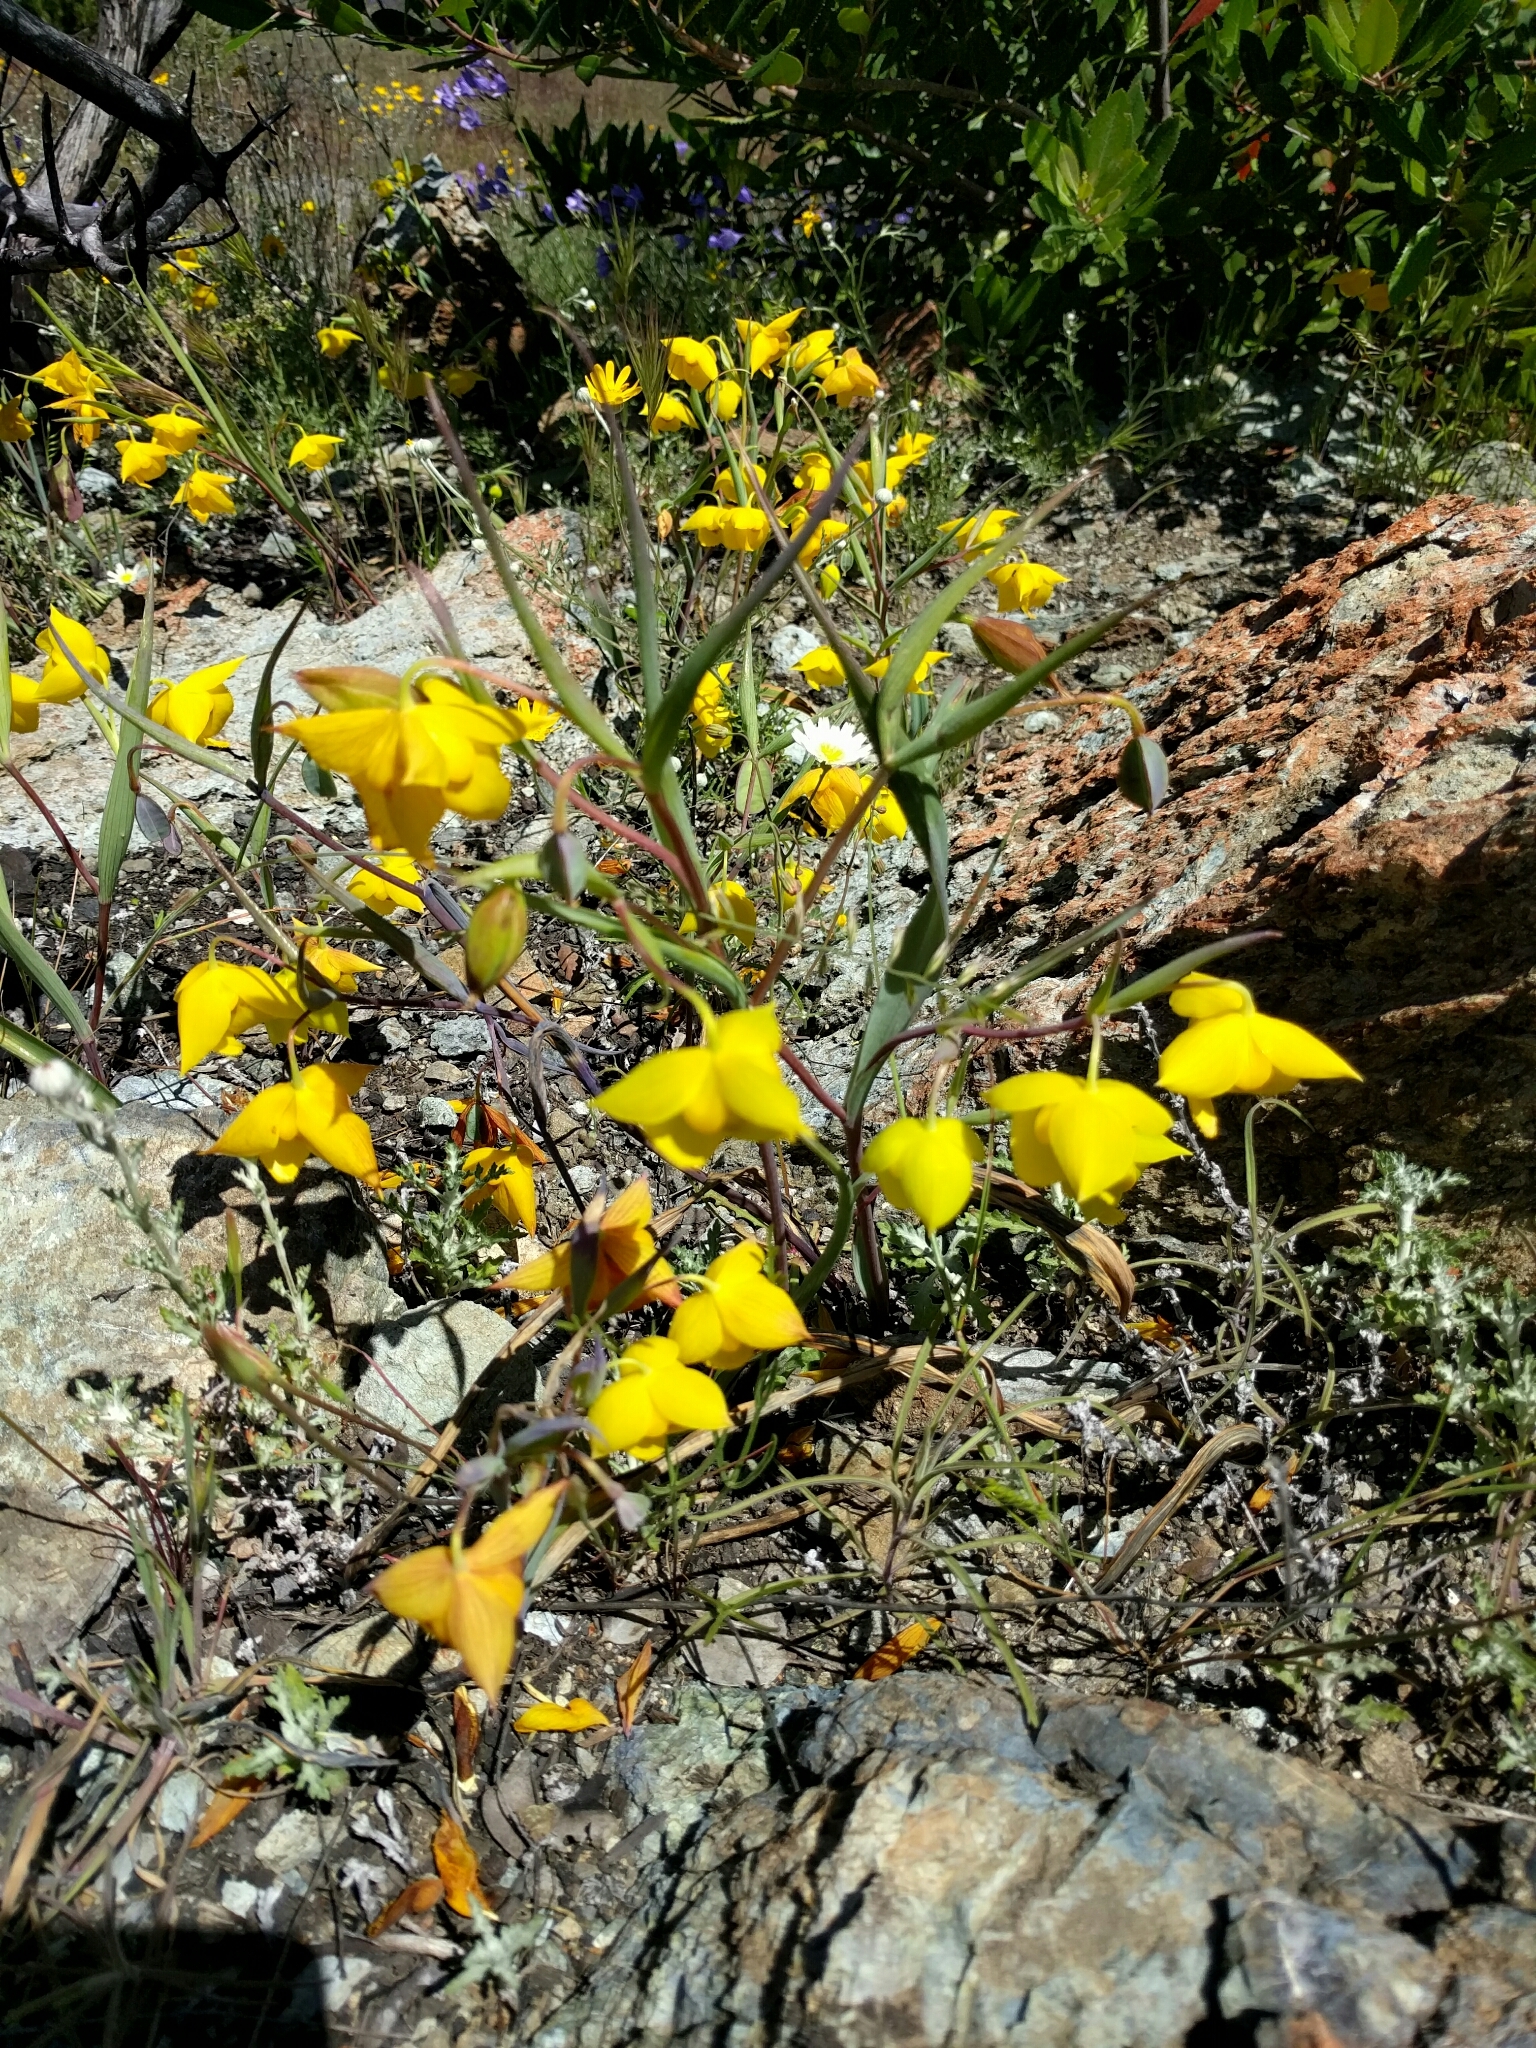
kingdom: Plantae
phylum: Tracheophyta
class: Liliopsida
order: Liliales
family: Liliaceae
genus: Calochortus
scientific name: Calochortus amabilis
